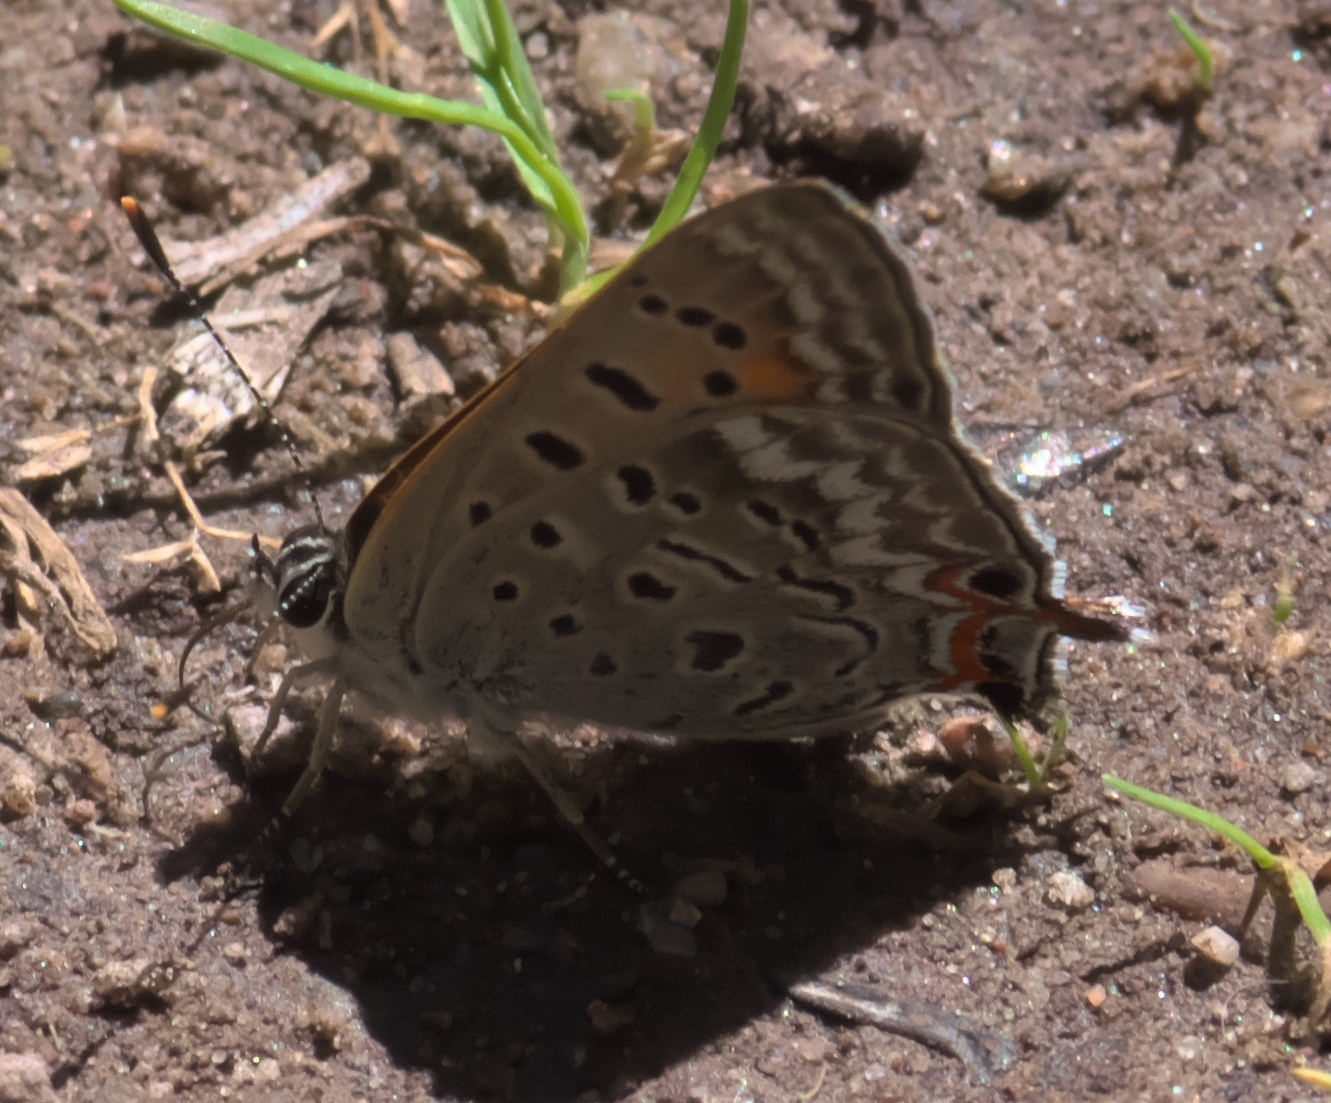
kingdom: Animalia
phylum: Arthropoda
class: Insecta
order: Lepidoptera
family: Lycaenidae
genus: Tharsalea
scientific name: Tharsalea arota
